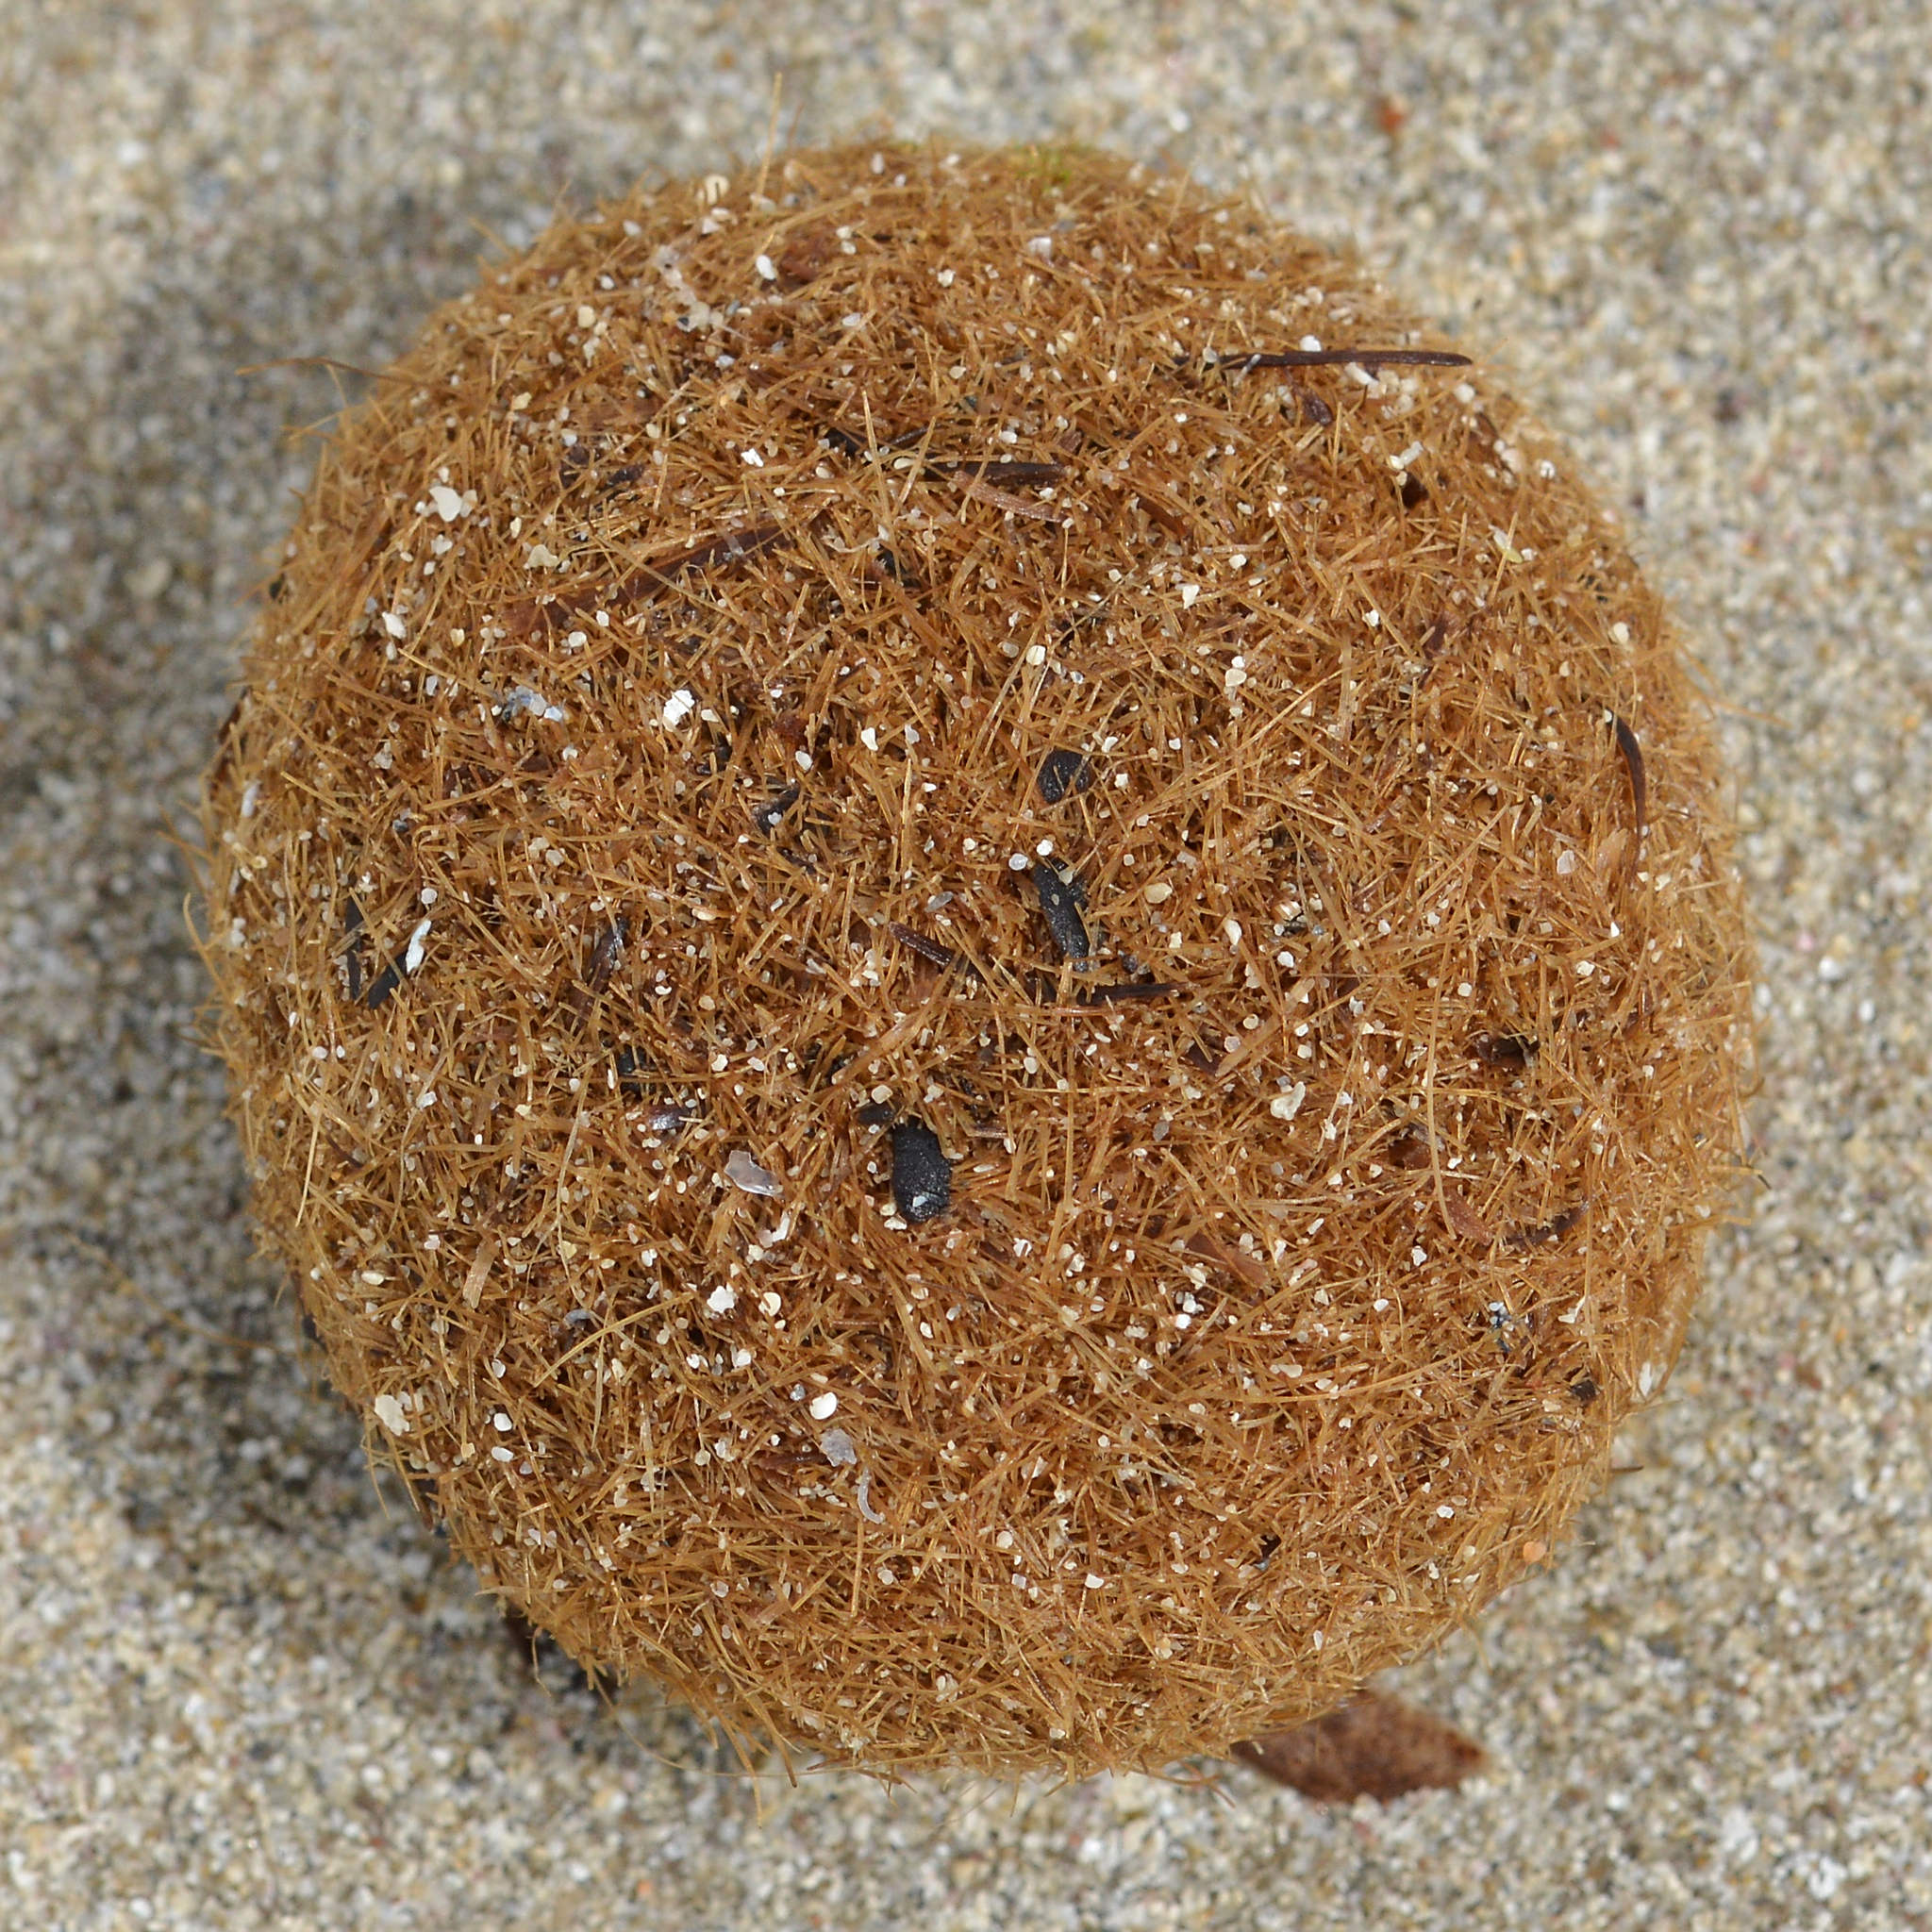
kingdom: Plantae
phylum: Tracheophyta
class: Liliopsida
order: Alismatales
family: Posidoniaceae
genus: Posidonia
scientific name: Posidonia oceanica
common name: Mediterranean tapeweed
